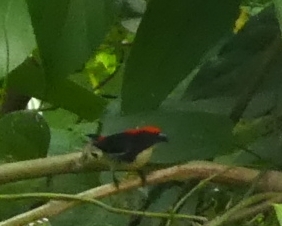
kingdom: Animalia
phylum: Chordata
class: Aves
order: Passeriformes
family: Dicaeidae
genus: Dicaeum
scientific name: Dicaeum cruentatum
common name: Scarlet-backed flowerpecker
